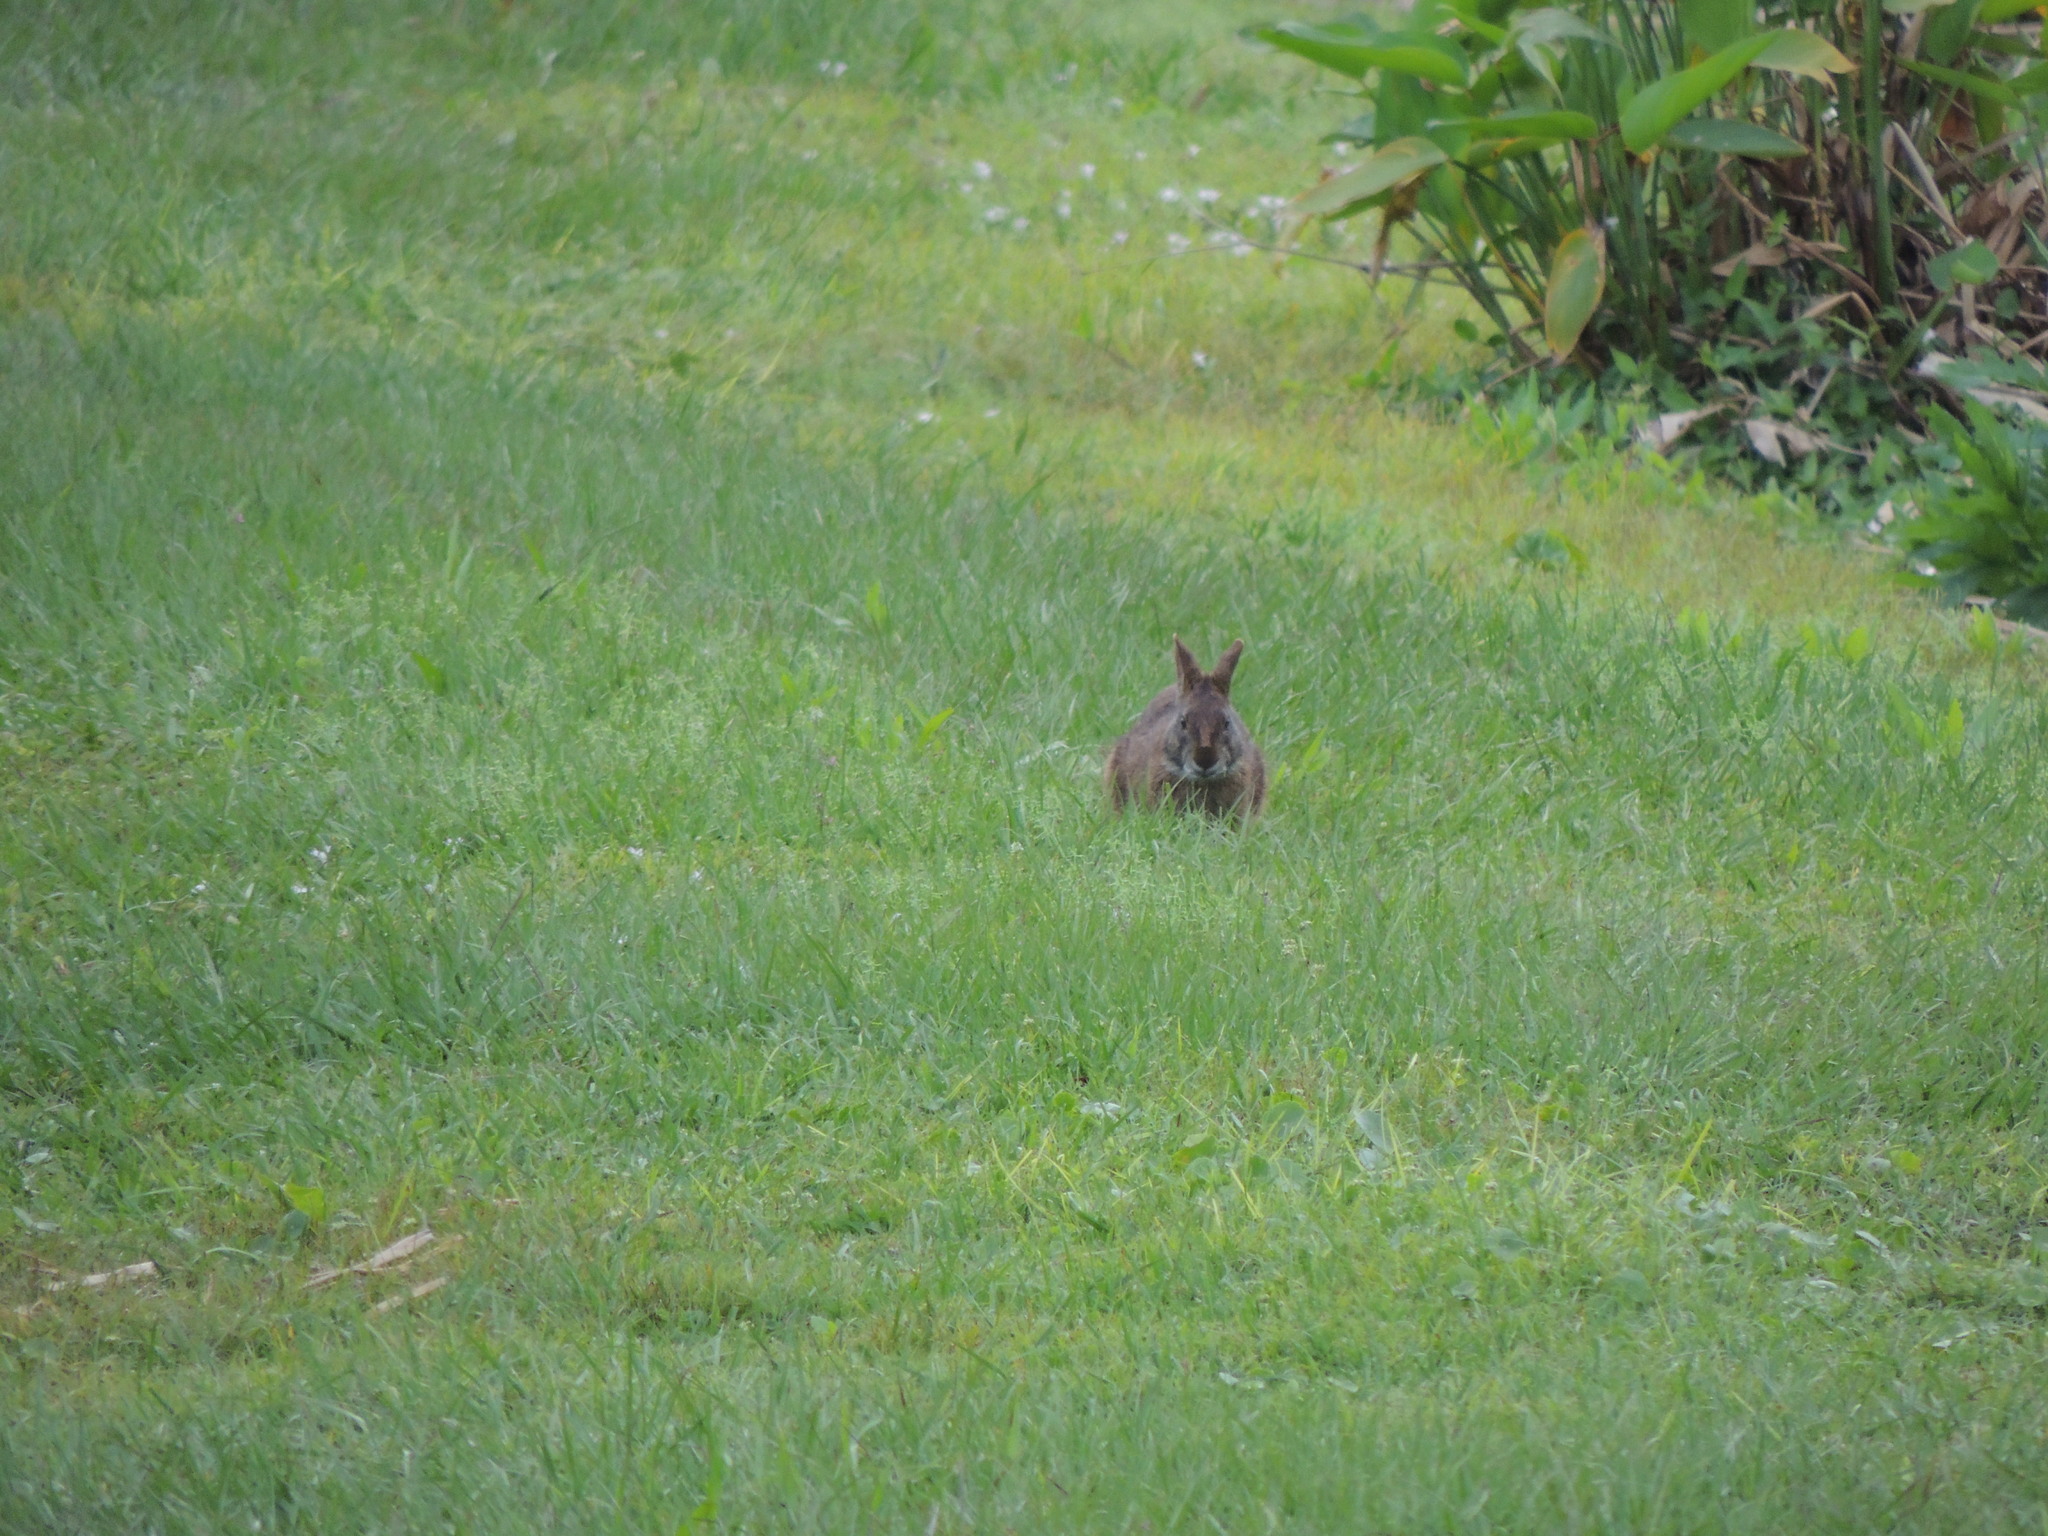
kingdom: Animalia
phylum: Chordata
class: Mammalia
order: Lagomorpha
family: Leporidae
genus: Sylvilagus
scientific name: Sylvilagus palustris
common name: Marsh rabbit
